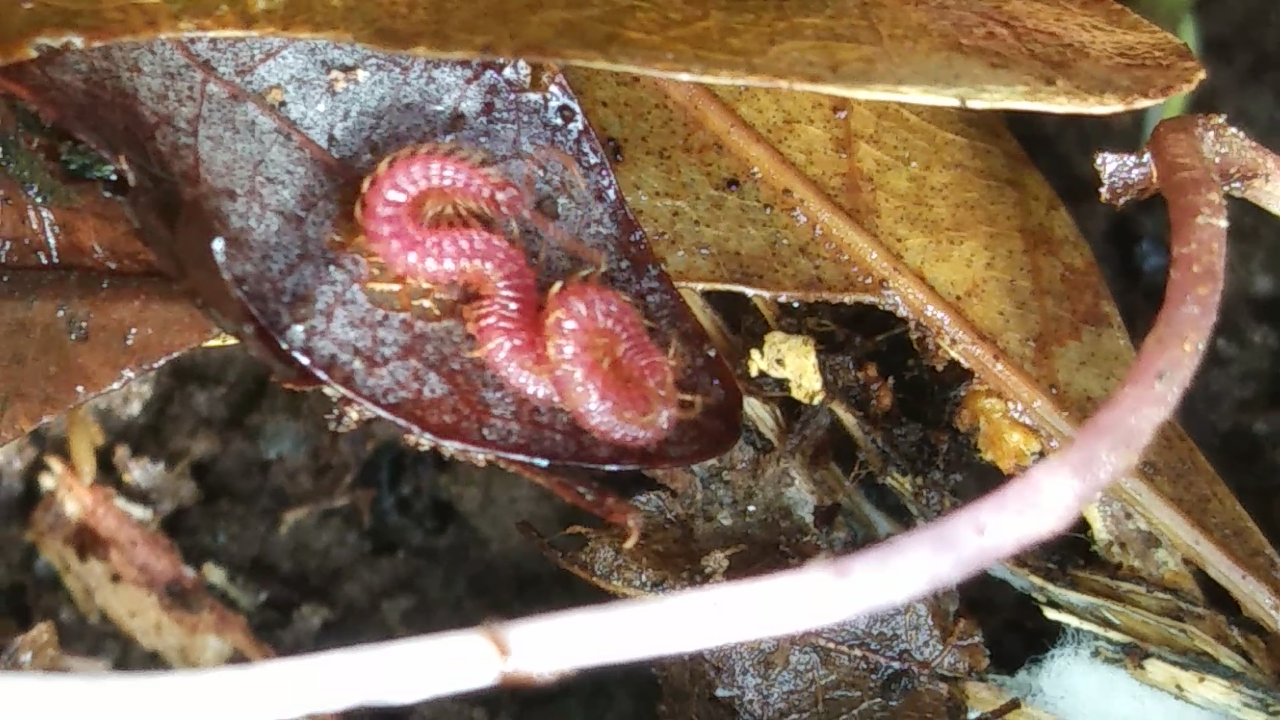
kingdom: Animalia
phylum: Arthropoda
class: Chilopoda
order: Geophilomorpha
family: Linotaeniidae
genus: Strigamia
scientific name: Strigamia bothriopus
